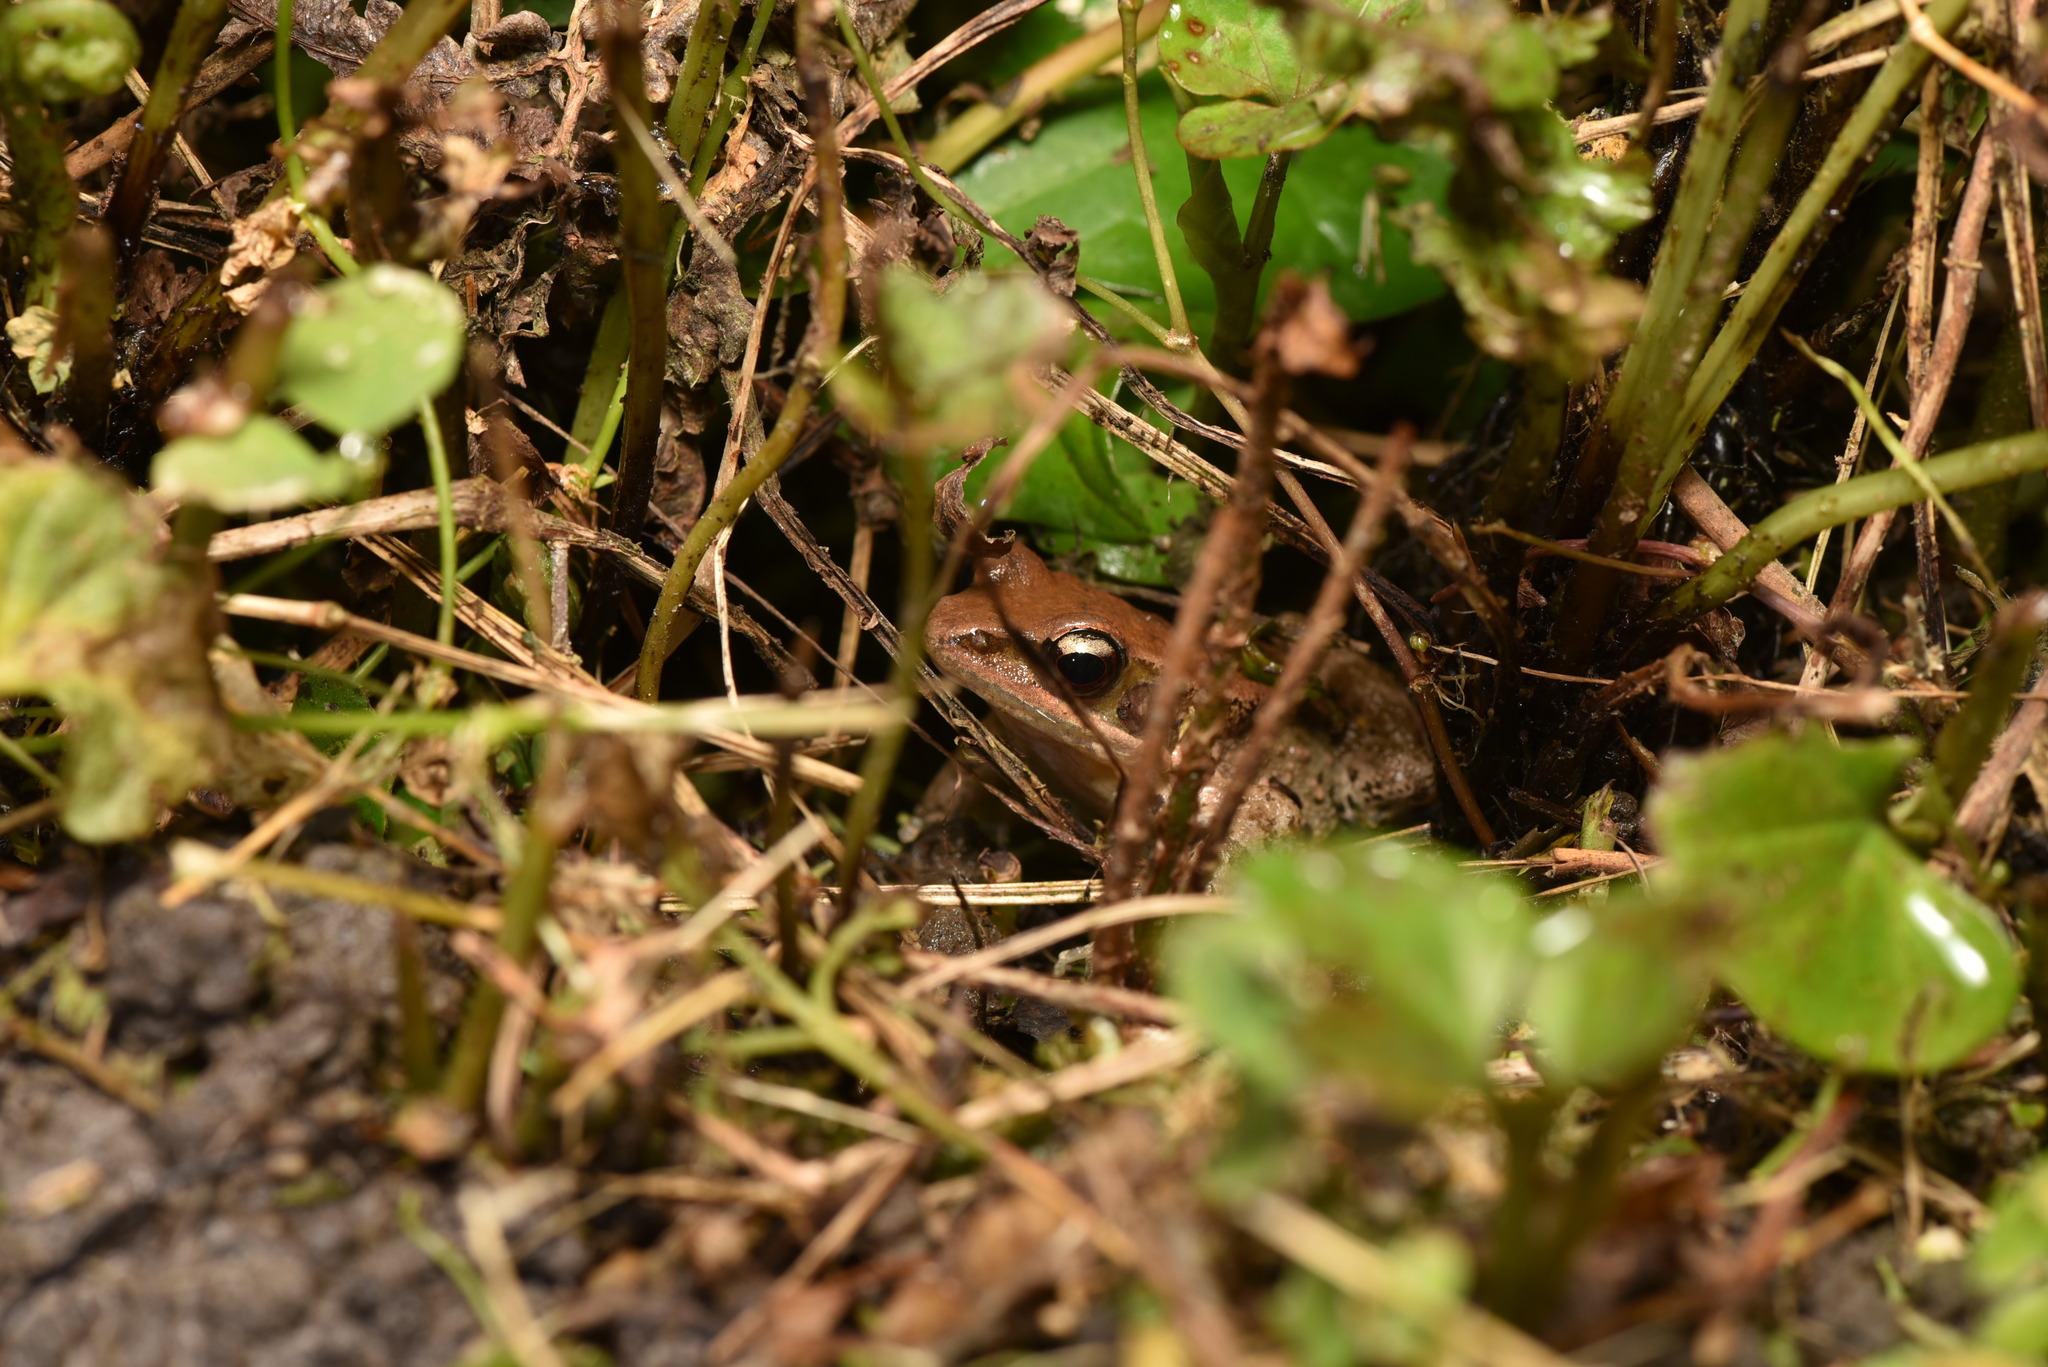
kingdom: Animalia
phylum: Chordata
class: Amphibia
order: Anura
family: Ranidae
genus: Hylarana
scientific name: Hylarana latouchii
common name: Broad-folded frog
